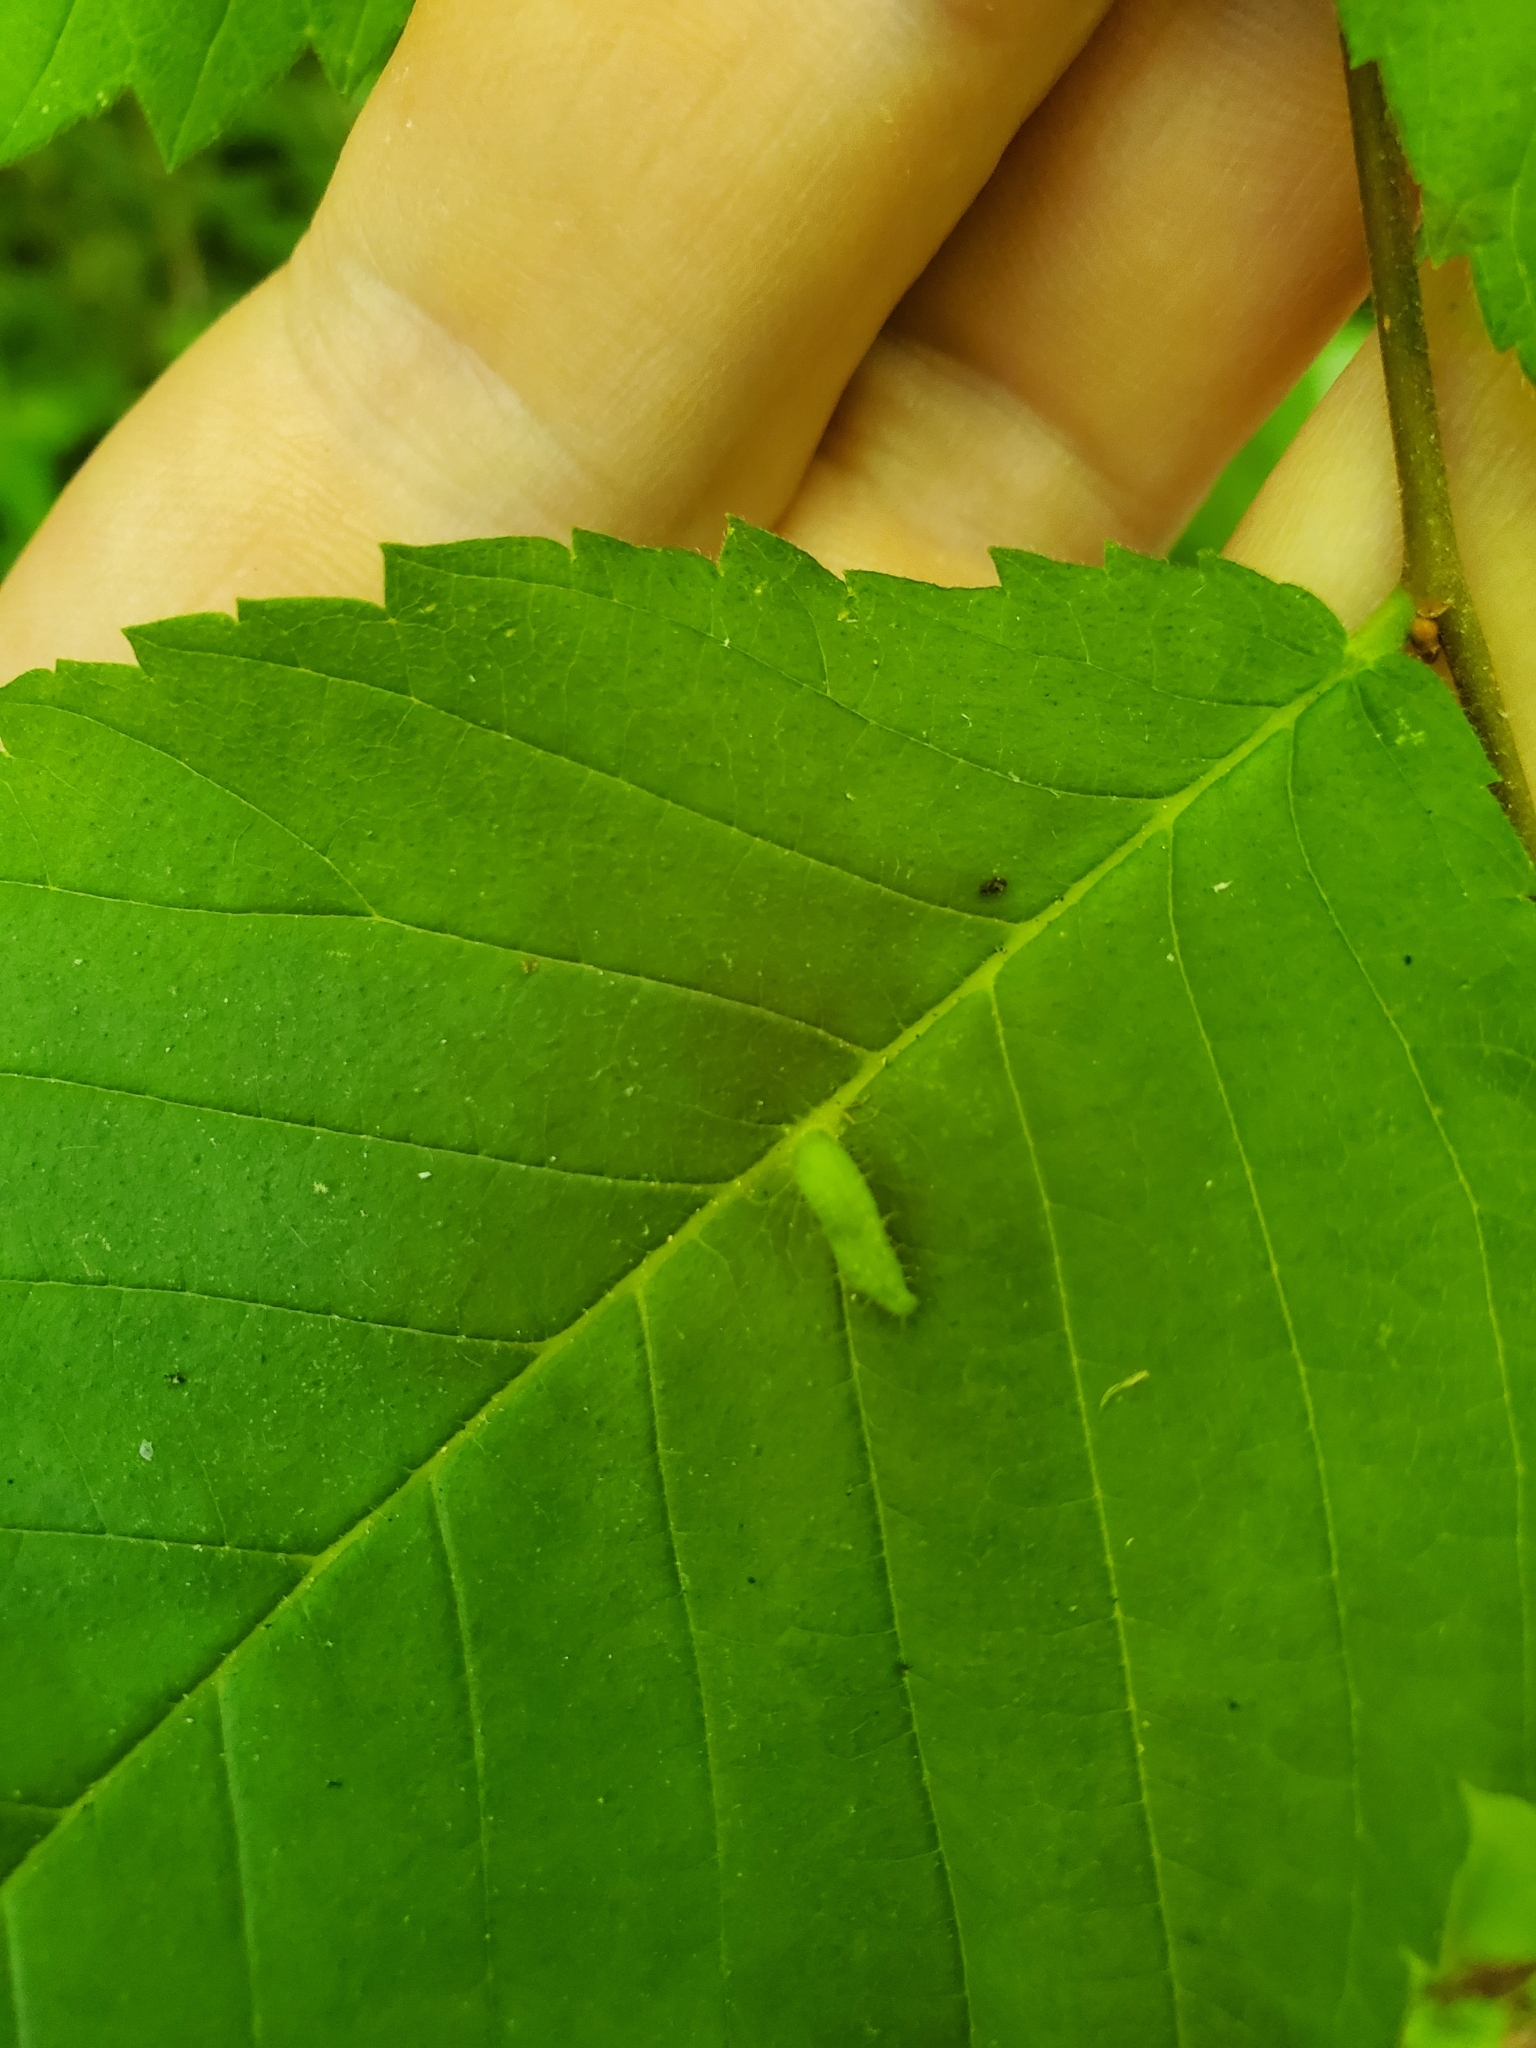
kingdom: Animalia
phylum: Arthropoda
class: Arachnida
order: Trombidiformes
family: Eriophyidae
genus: Aceria
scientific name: Aceria
